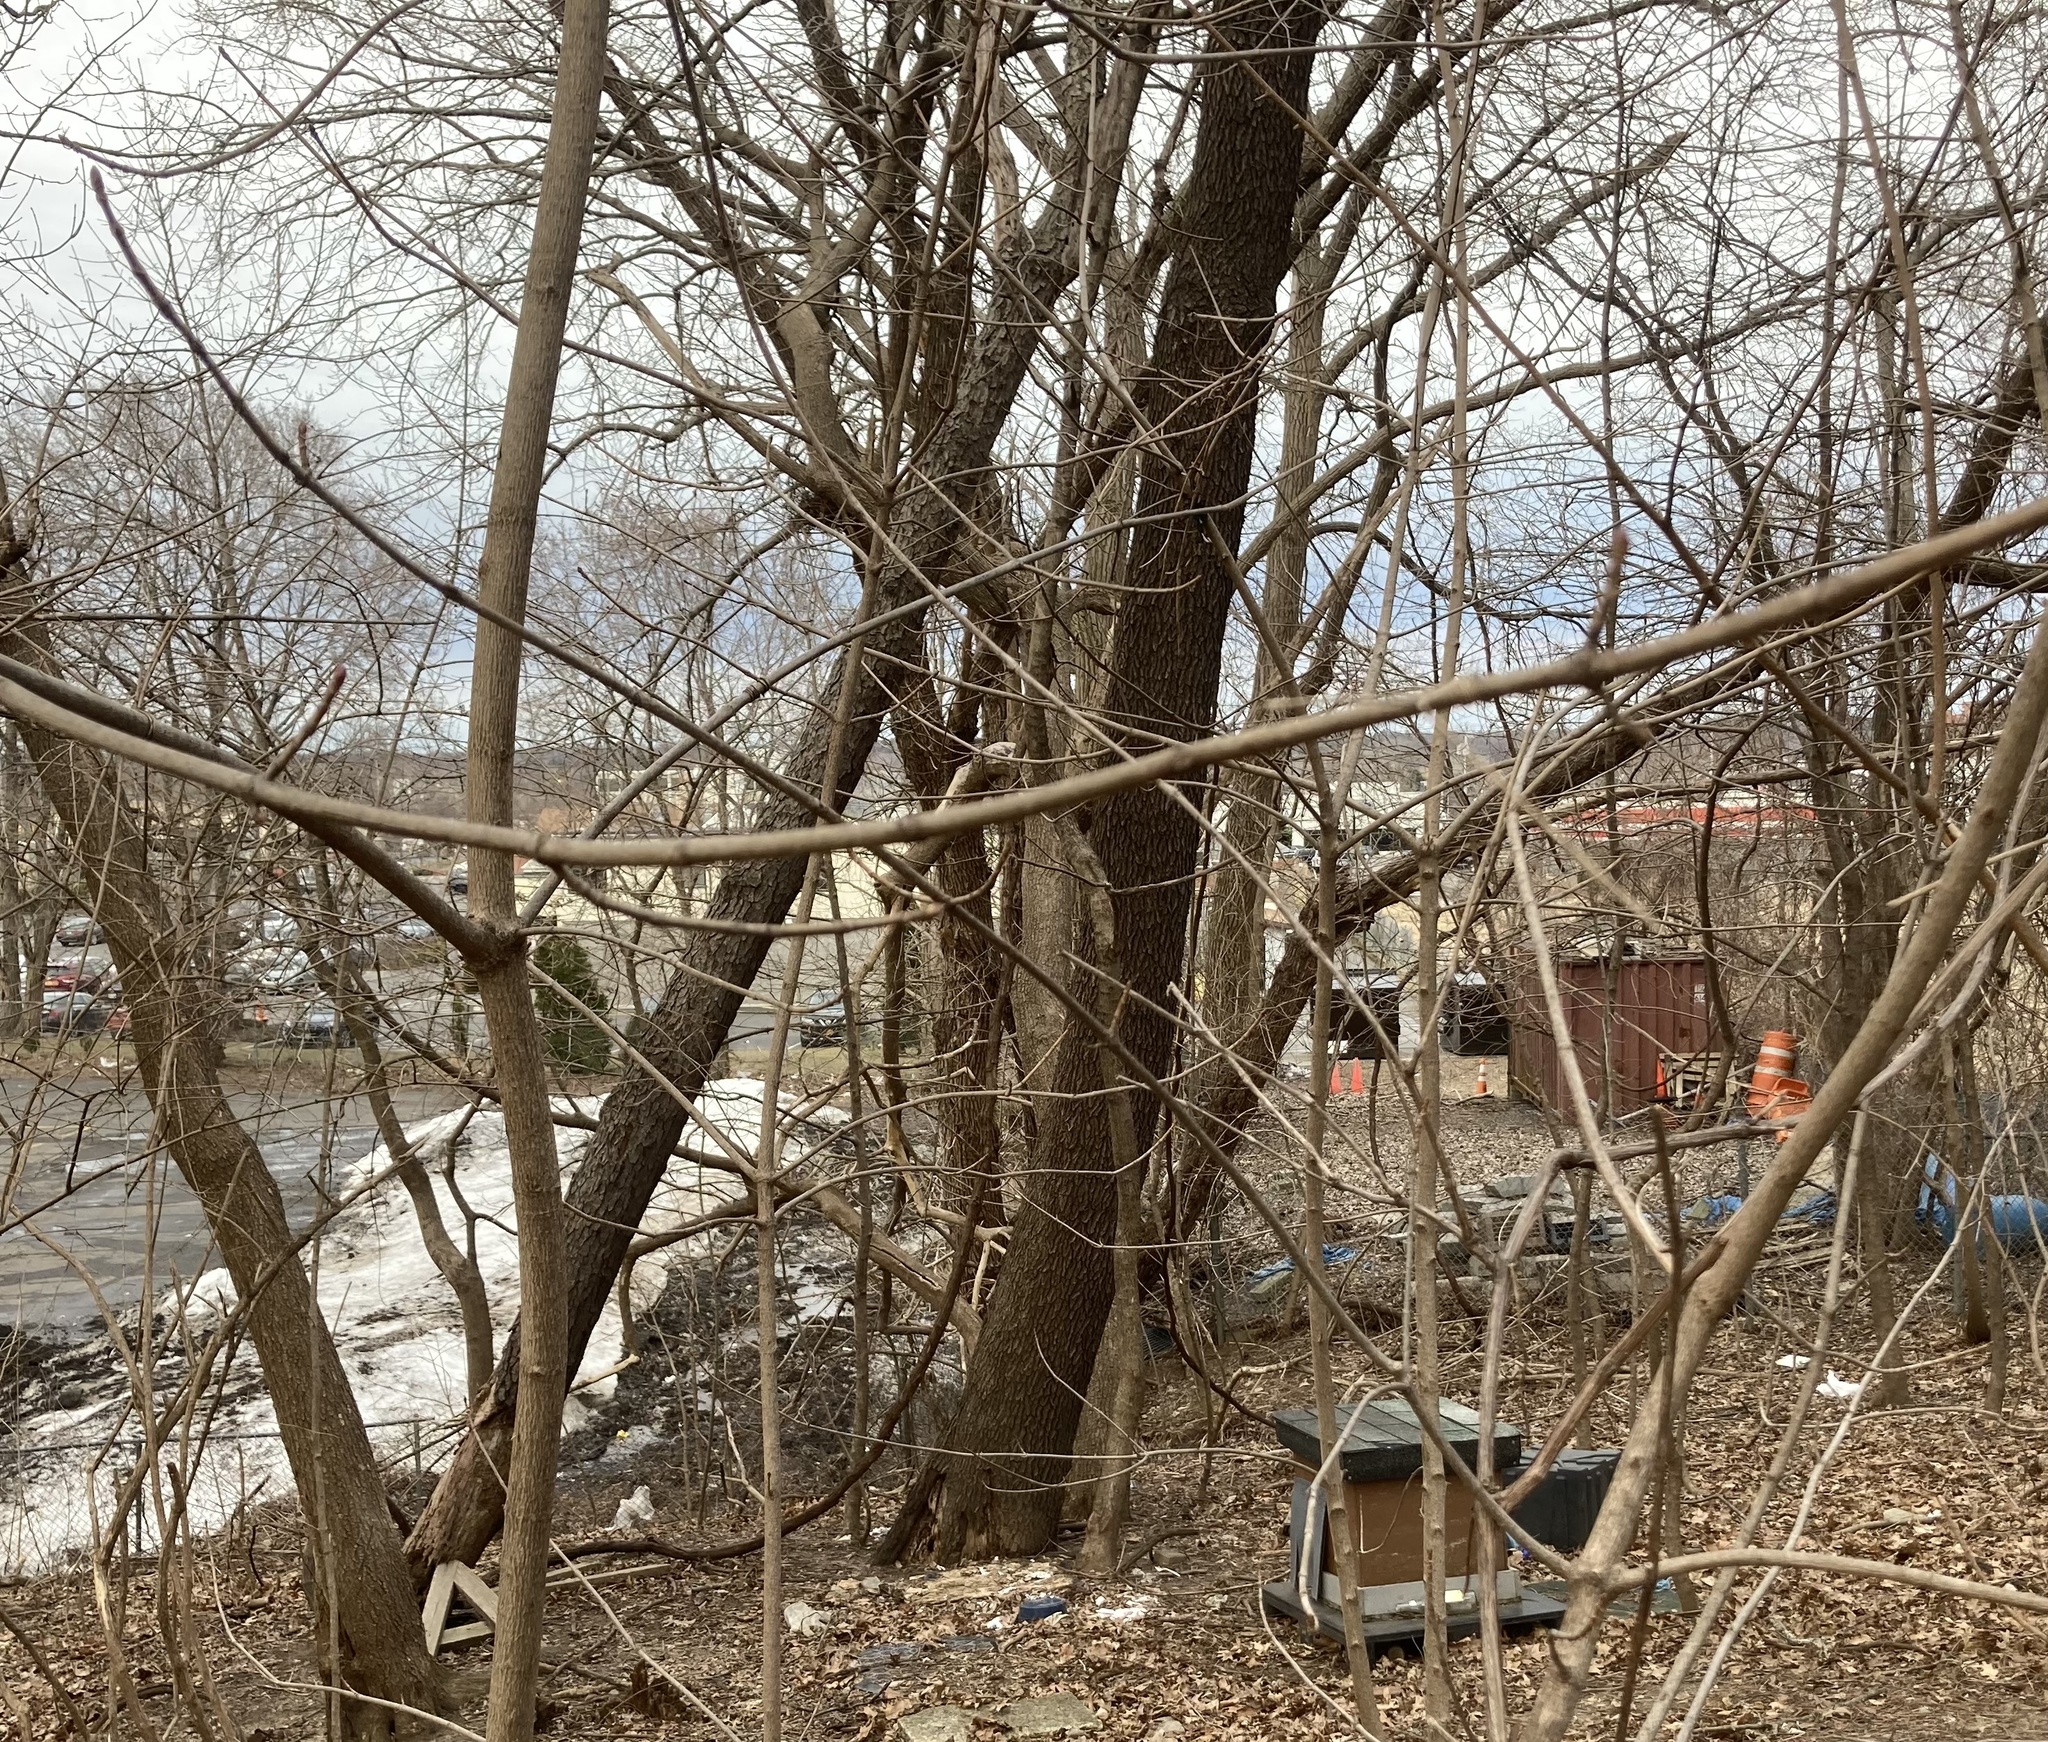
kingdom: Plantae
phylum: Tracheophyta
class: Magnoliopsida
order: Rosales
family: Rosaceae
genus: Prunus
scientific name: Prunus serotina
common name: Black cherry
